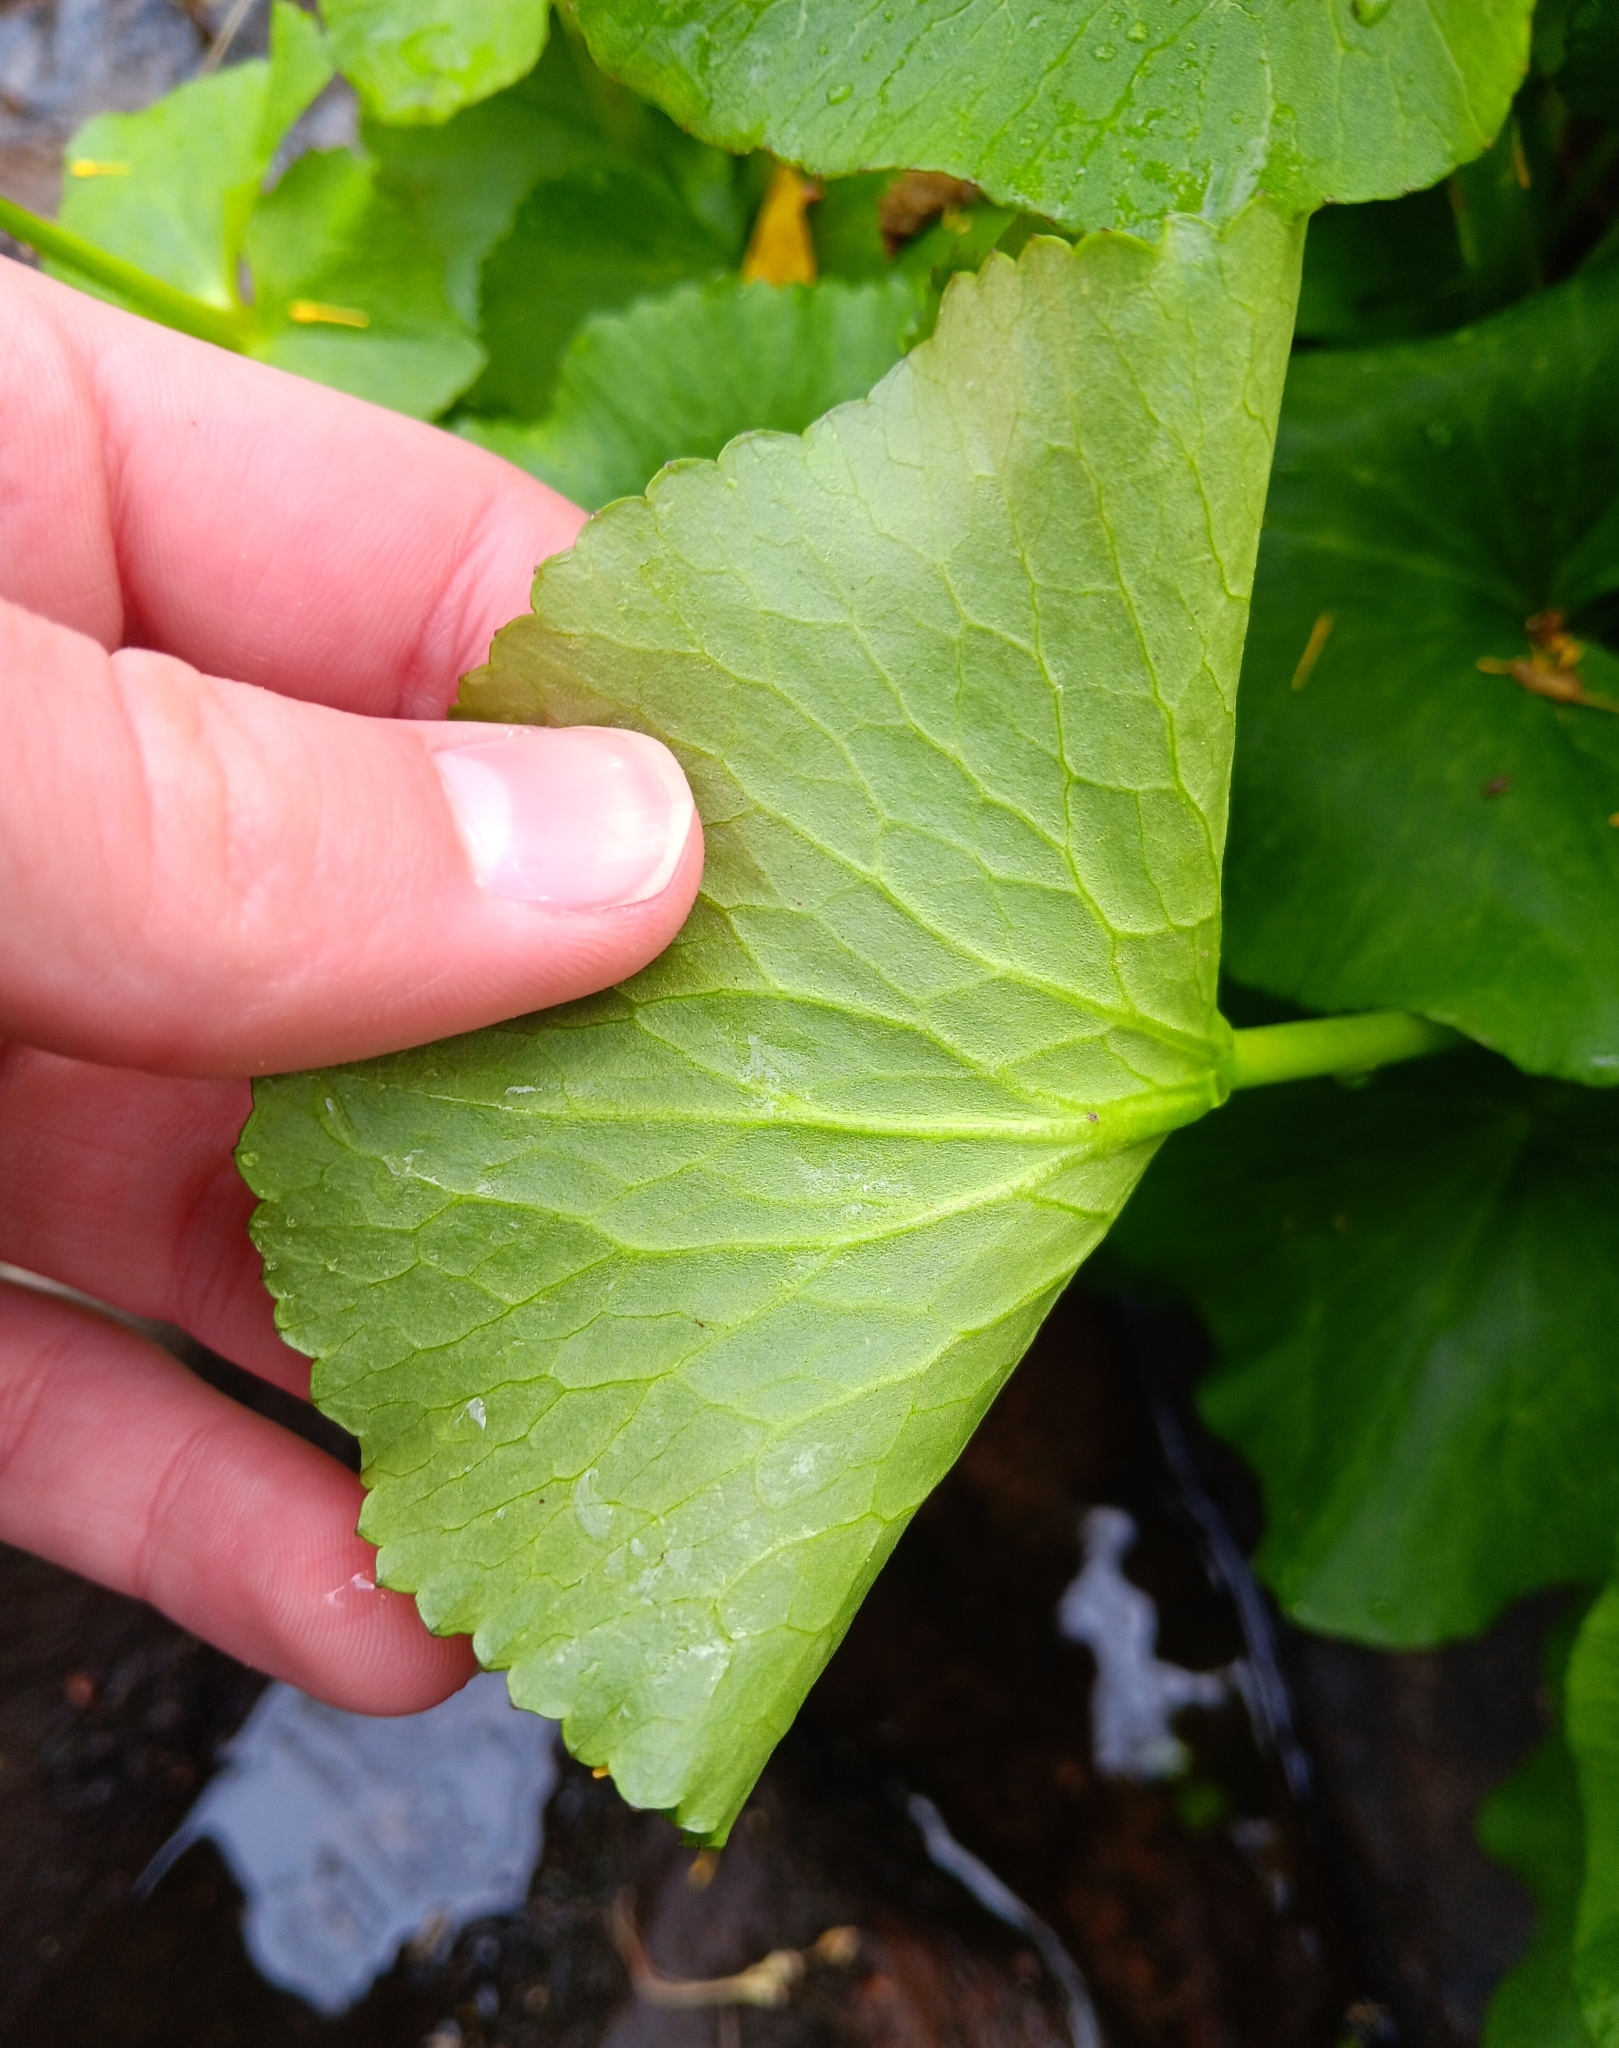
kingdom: Plantae
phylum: Tracheophyta
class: Magnoliopsida
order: Ranunculales
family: Ranunculaceae
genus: Caltha
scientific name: Caltha palustris
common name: Marsh marigold
